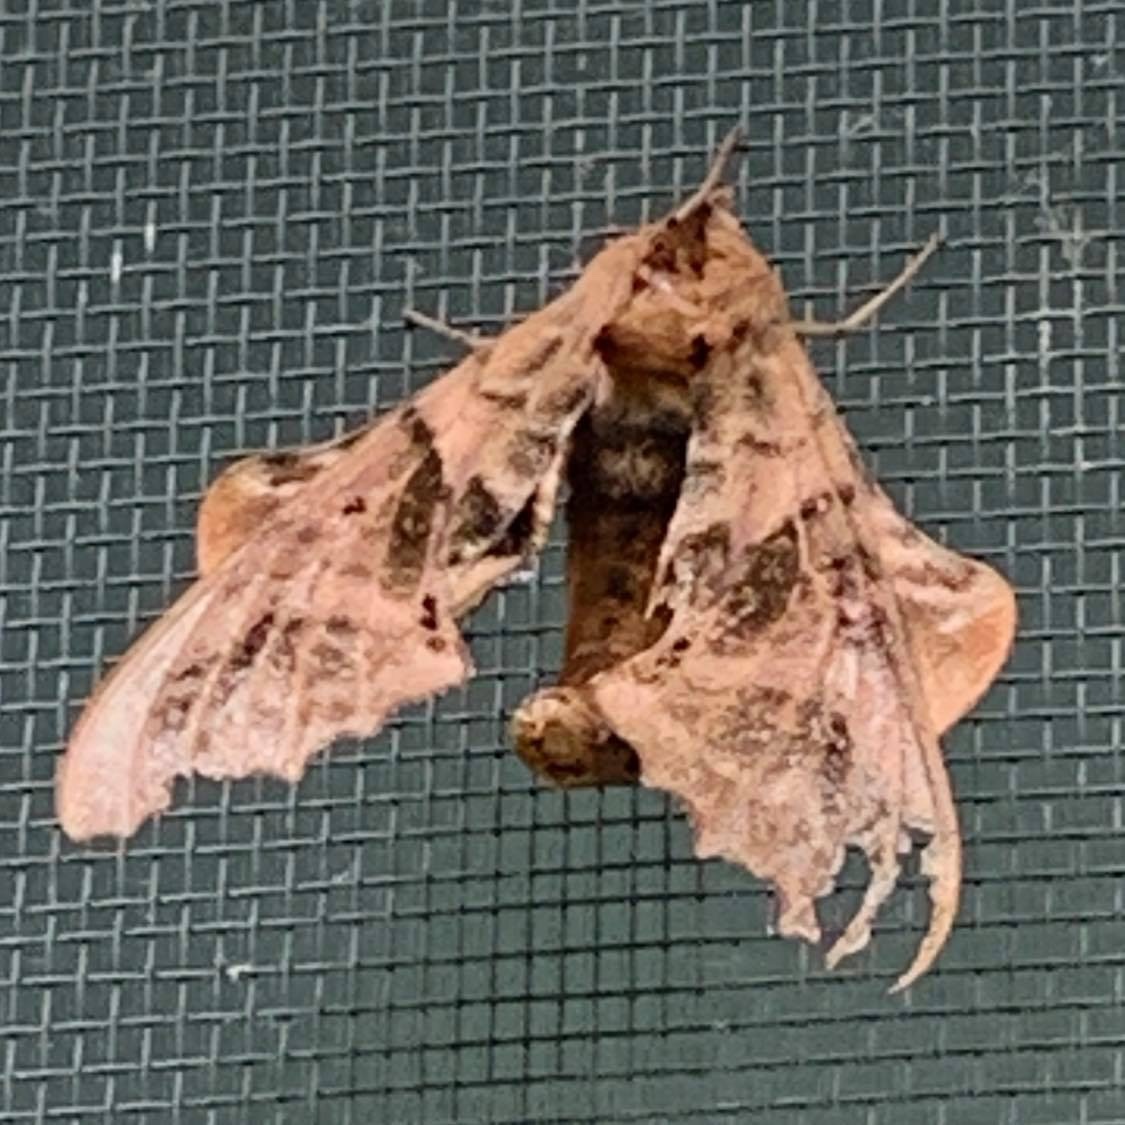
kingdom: Animalia
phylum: Arthropoda
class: Insecta
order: Lepidoptera
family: Sphingidae
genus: Paonias
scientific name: Paonias excaecata
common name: Blind-eyed sphinx
